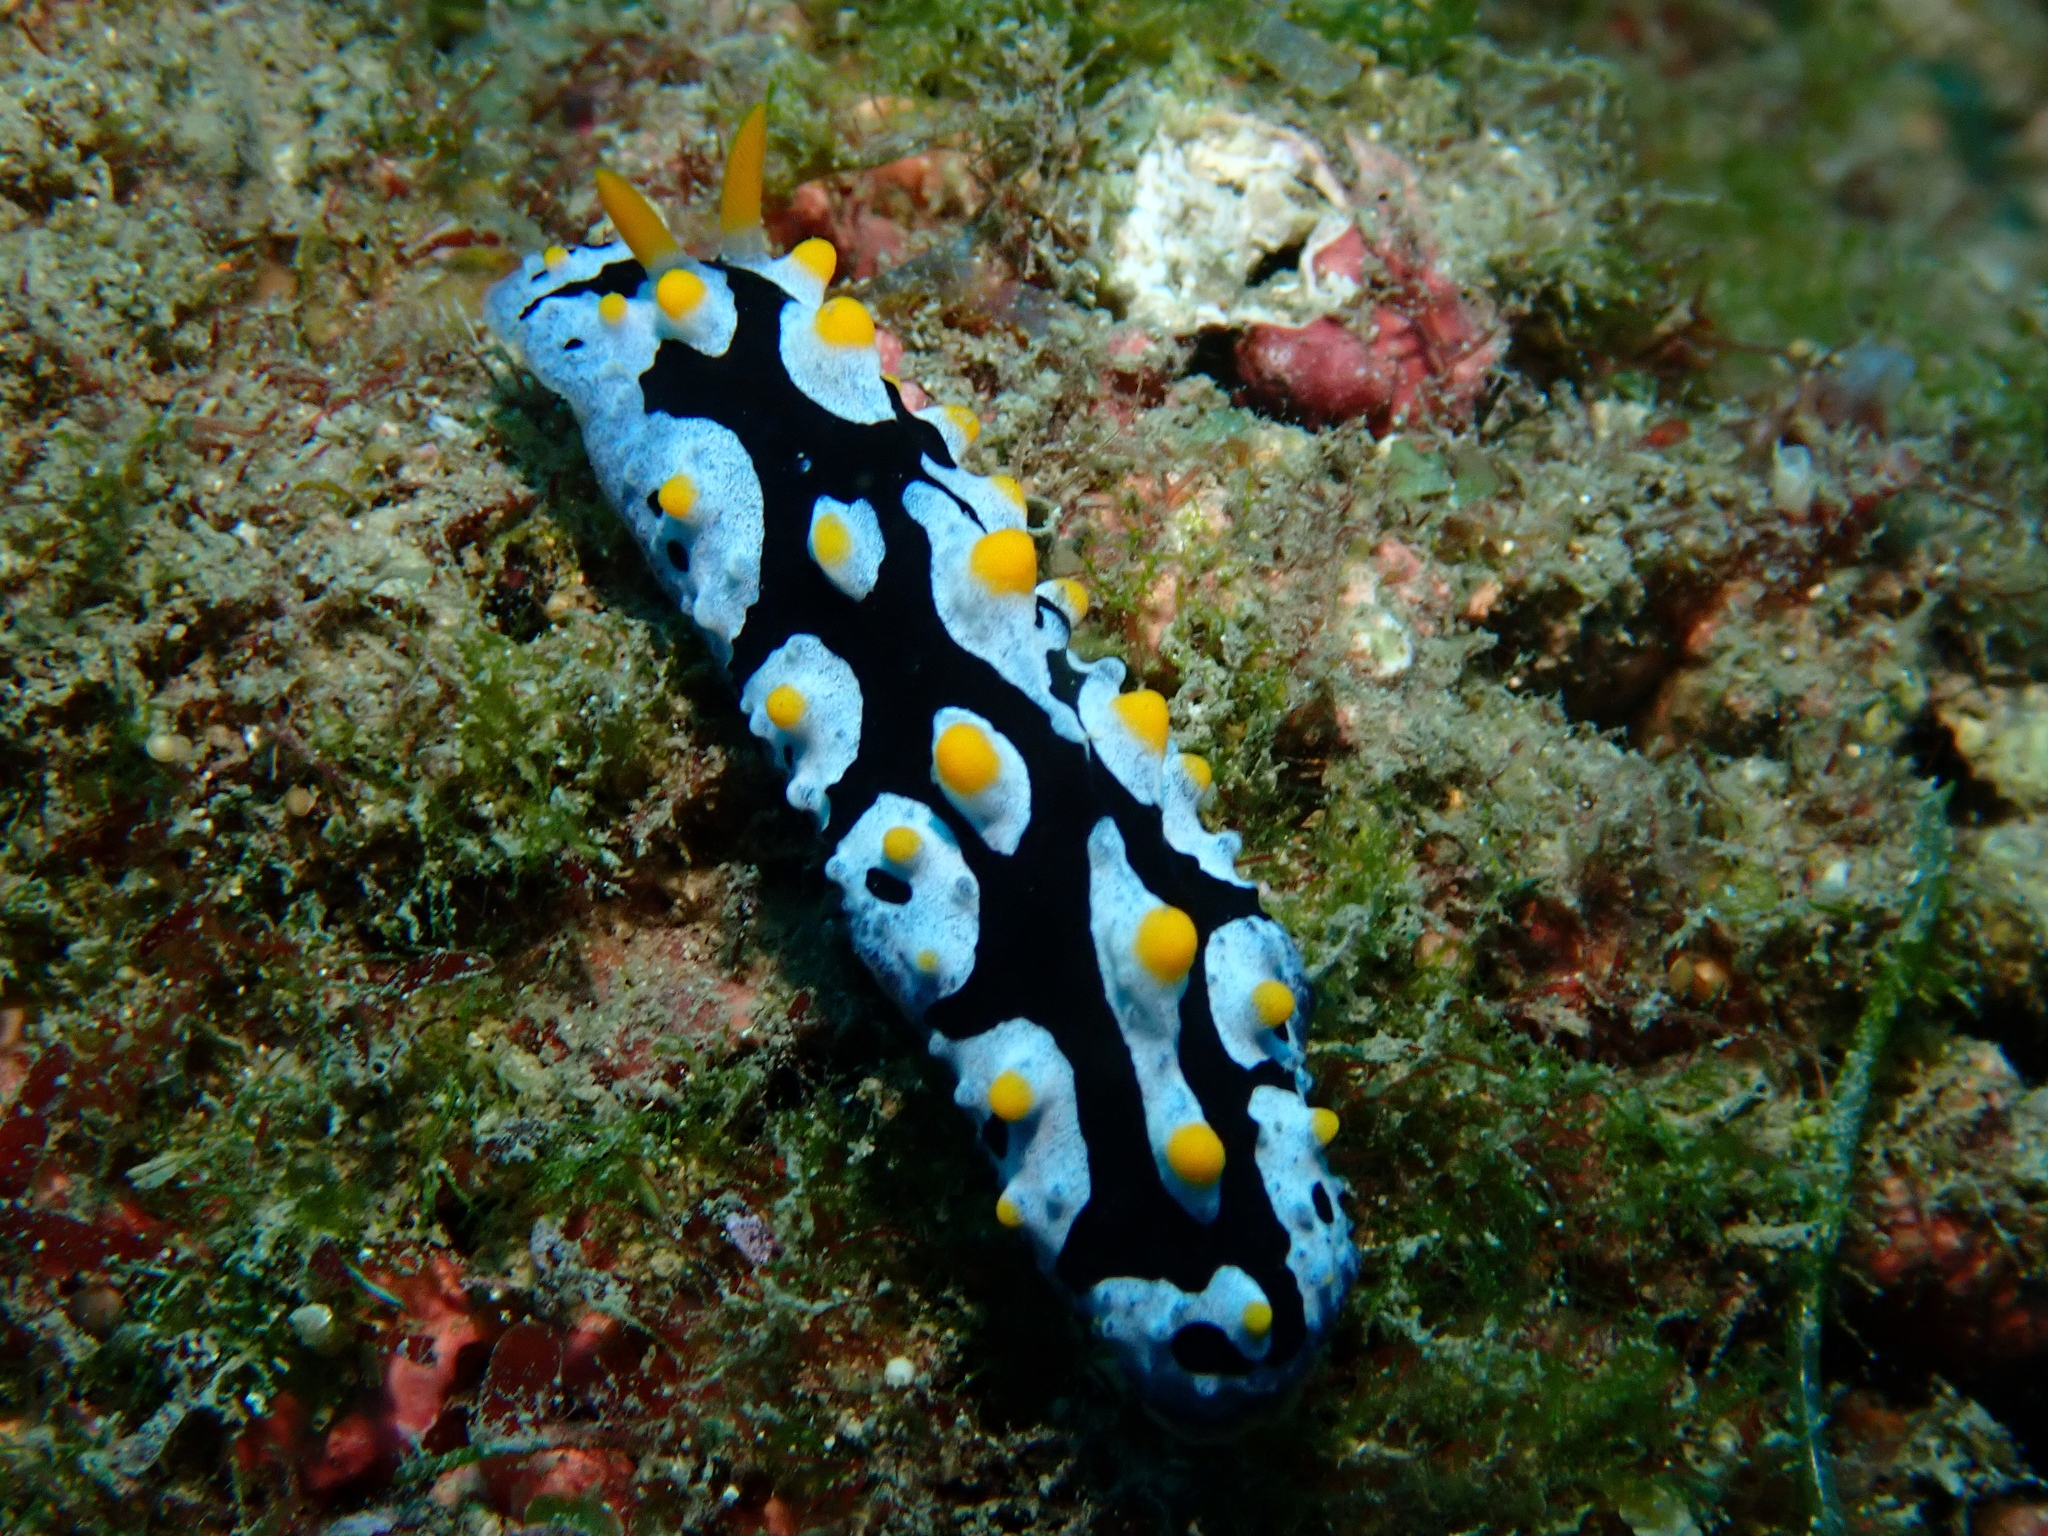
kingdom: Animalia
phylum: Mollusca
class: Gastropoda
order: Nudibranchia
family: Phyllidiidae
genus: Phyllidia
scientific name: Phyllidia picta
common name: Black-rayed phyllidia
